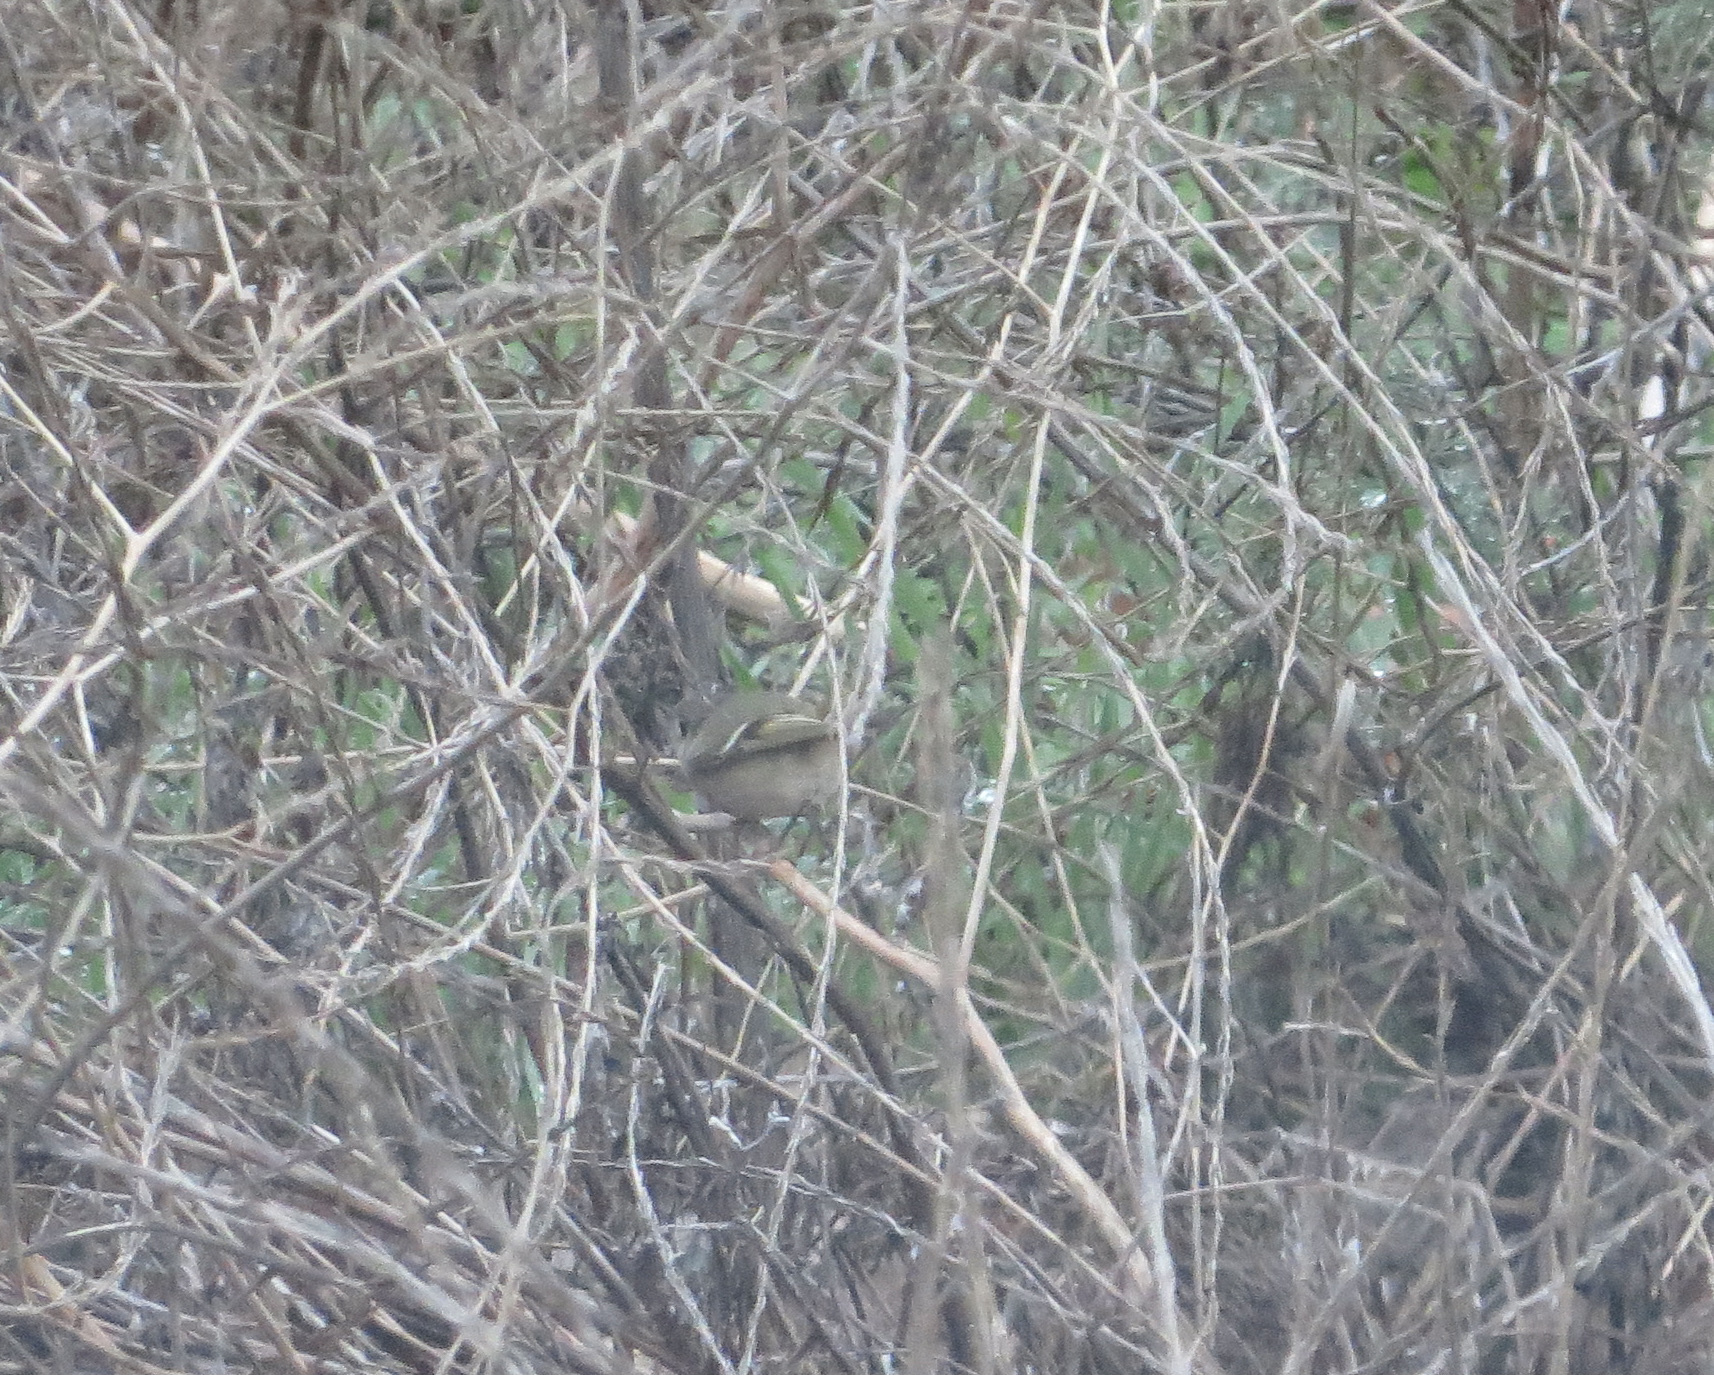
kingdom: Animalia
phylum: Chordata
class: Aves
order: Passeriformes
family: Regulidae
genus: Regulus
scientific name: Regulus calendula
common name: Ruby-crowned kinglet
